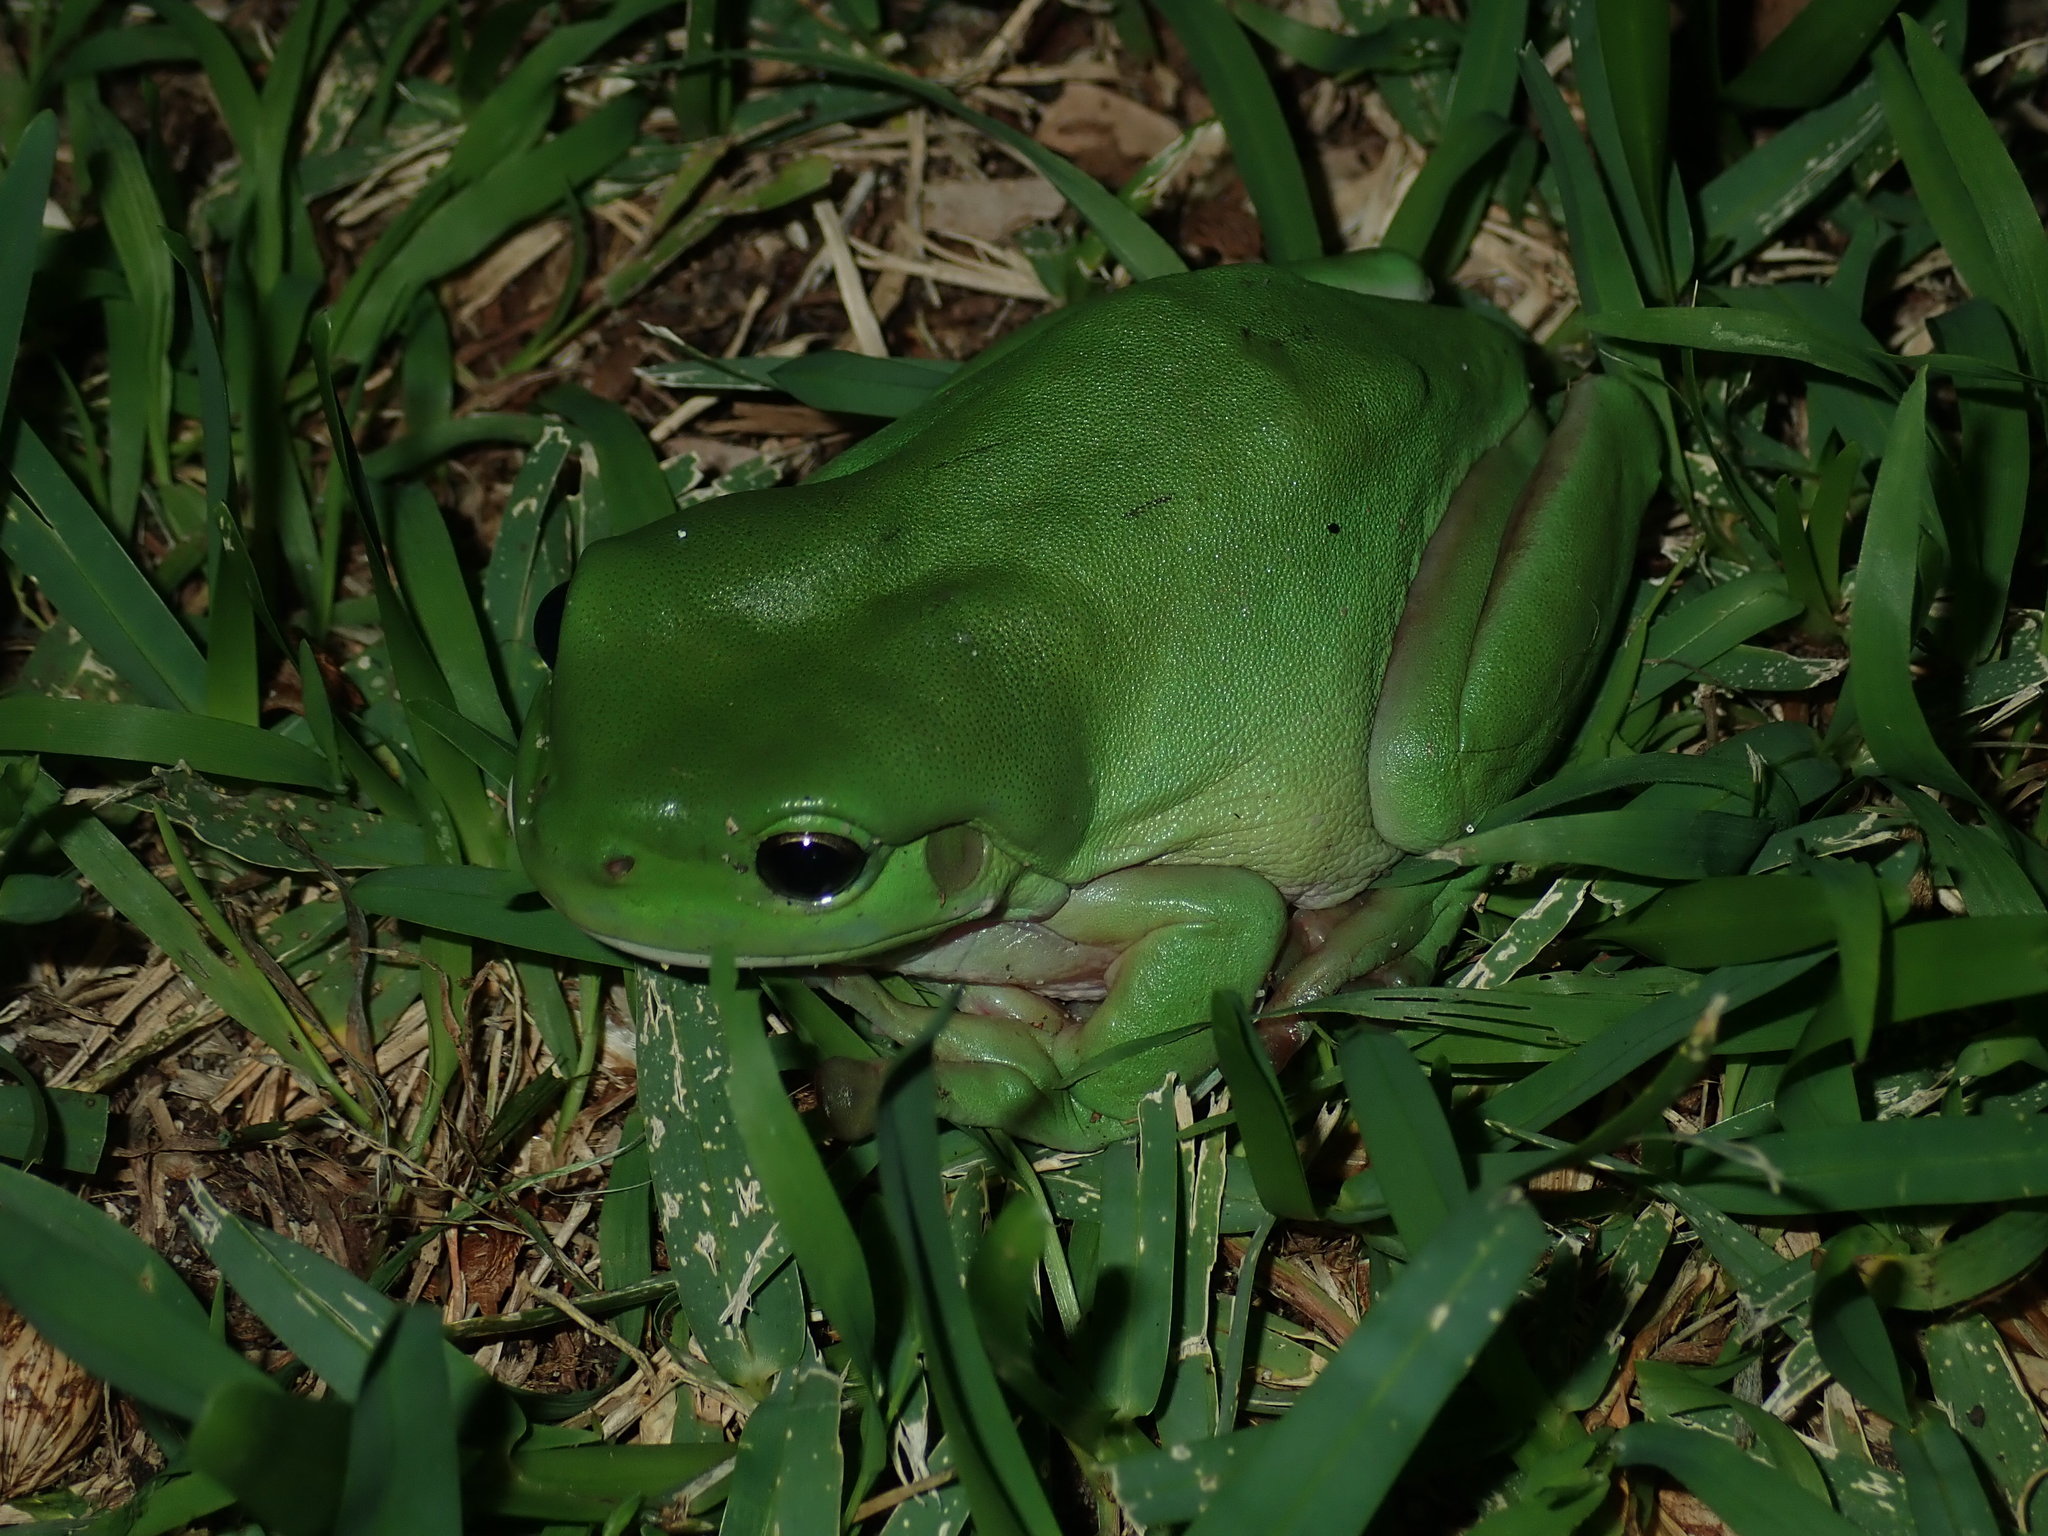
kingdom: Animalia
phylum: Chordata
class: Amphibia
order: Anura
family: Pelodryadidae
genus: Ranoidea
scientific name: Ranoidea caerulea
